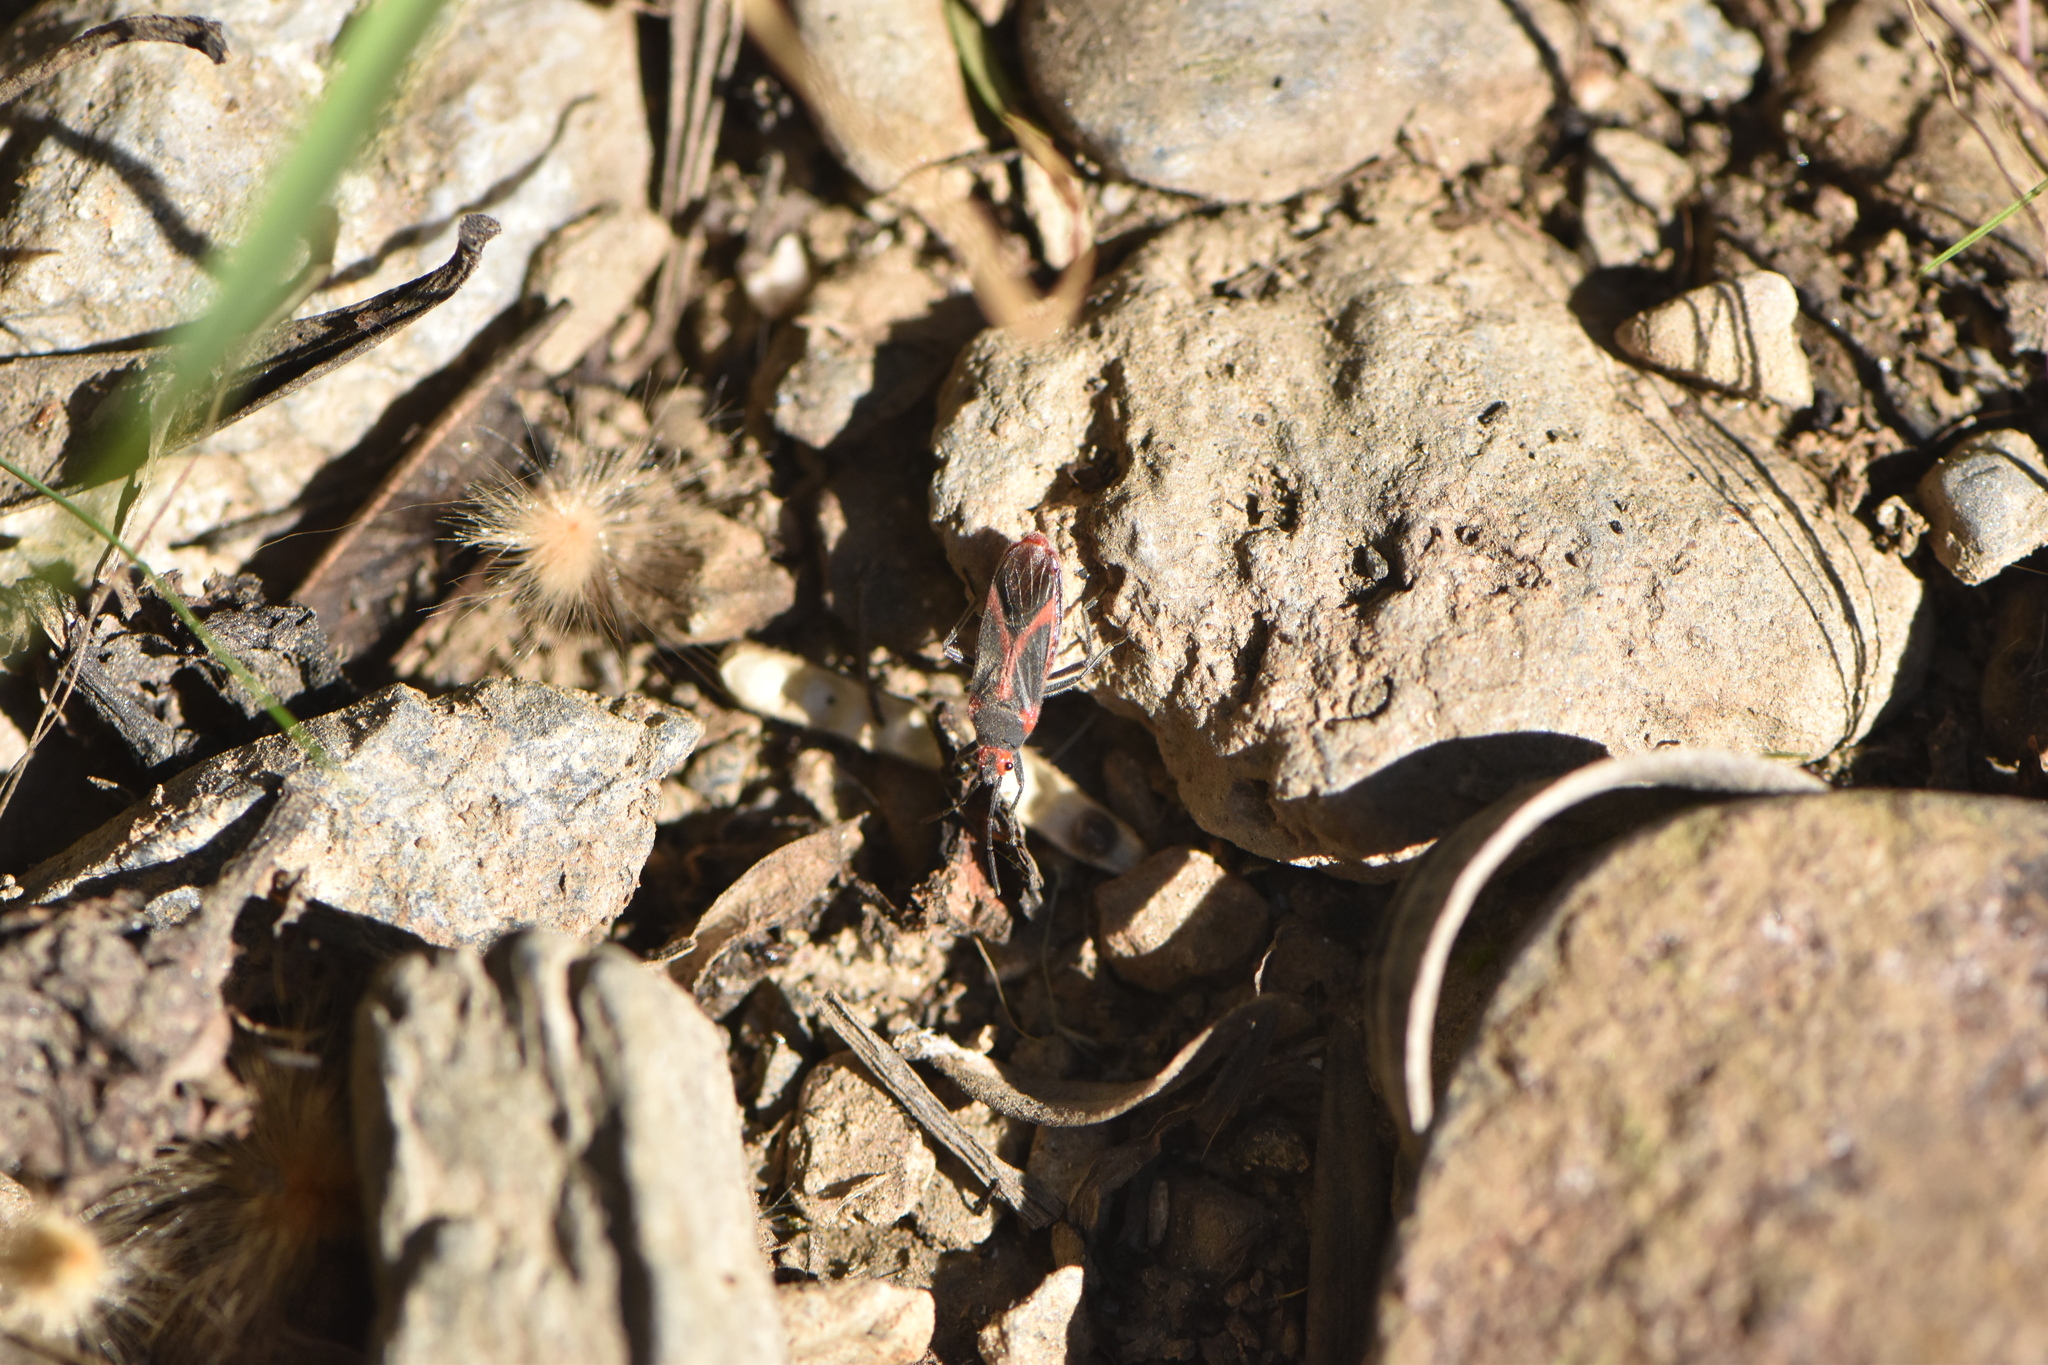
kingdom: Animalia
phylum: Arthropoda
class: Insecta
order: Hemiptera
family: Lygaeidae
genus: Caenocoris
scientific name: Caenocoris nerii
